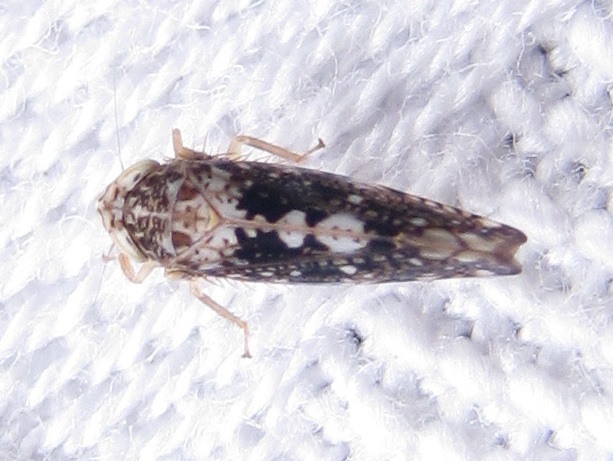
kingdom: Animalia
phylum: Arthropoda
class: Insecta
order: Hemiptera
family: Cicadellidae
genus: Prescottia
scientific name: Prescottia lobata
